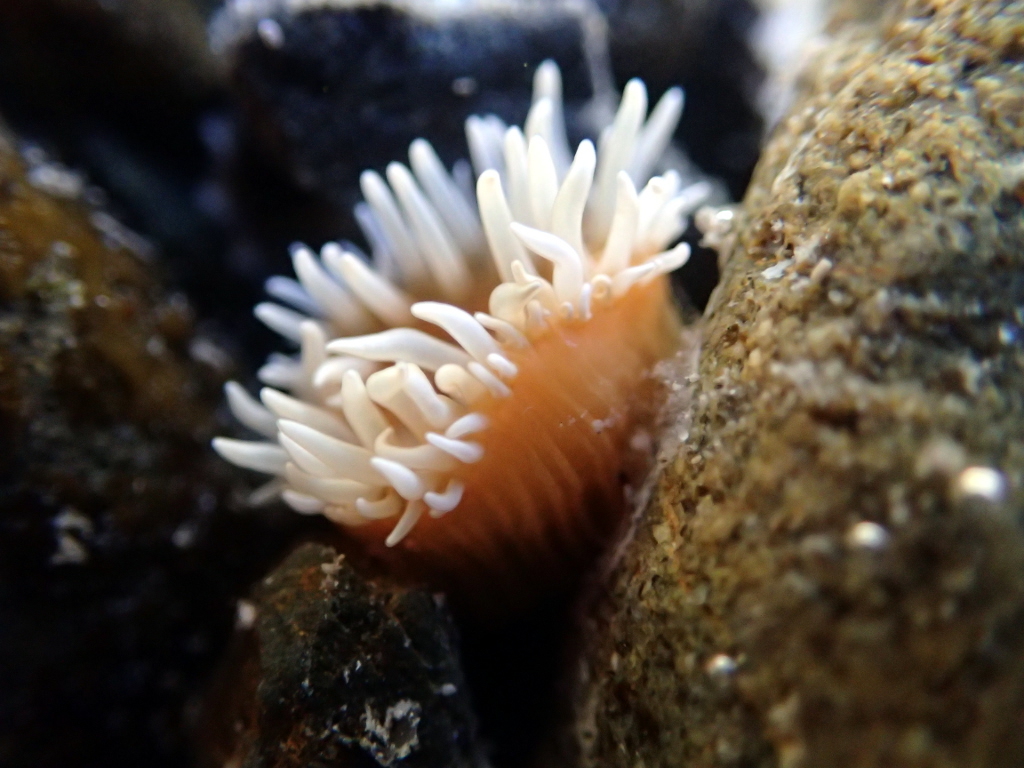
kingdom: Animalia
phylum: Cnidaria
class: Anthozoa
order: Actiniaria
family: Sagartiidae
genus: Anthothoe
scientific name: Anthothoe albocincta
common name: Orange striped anemone
